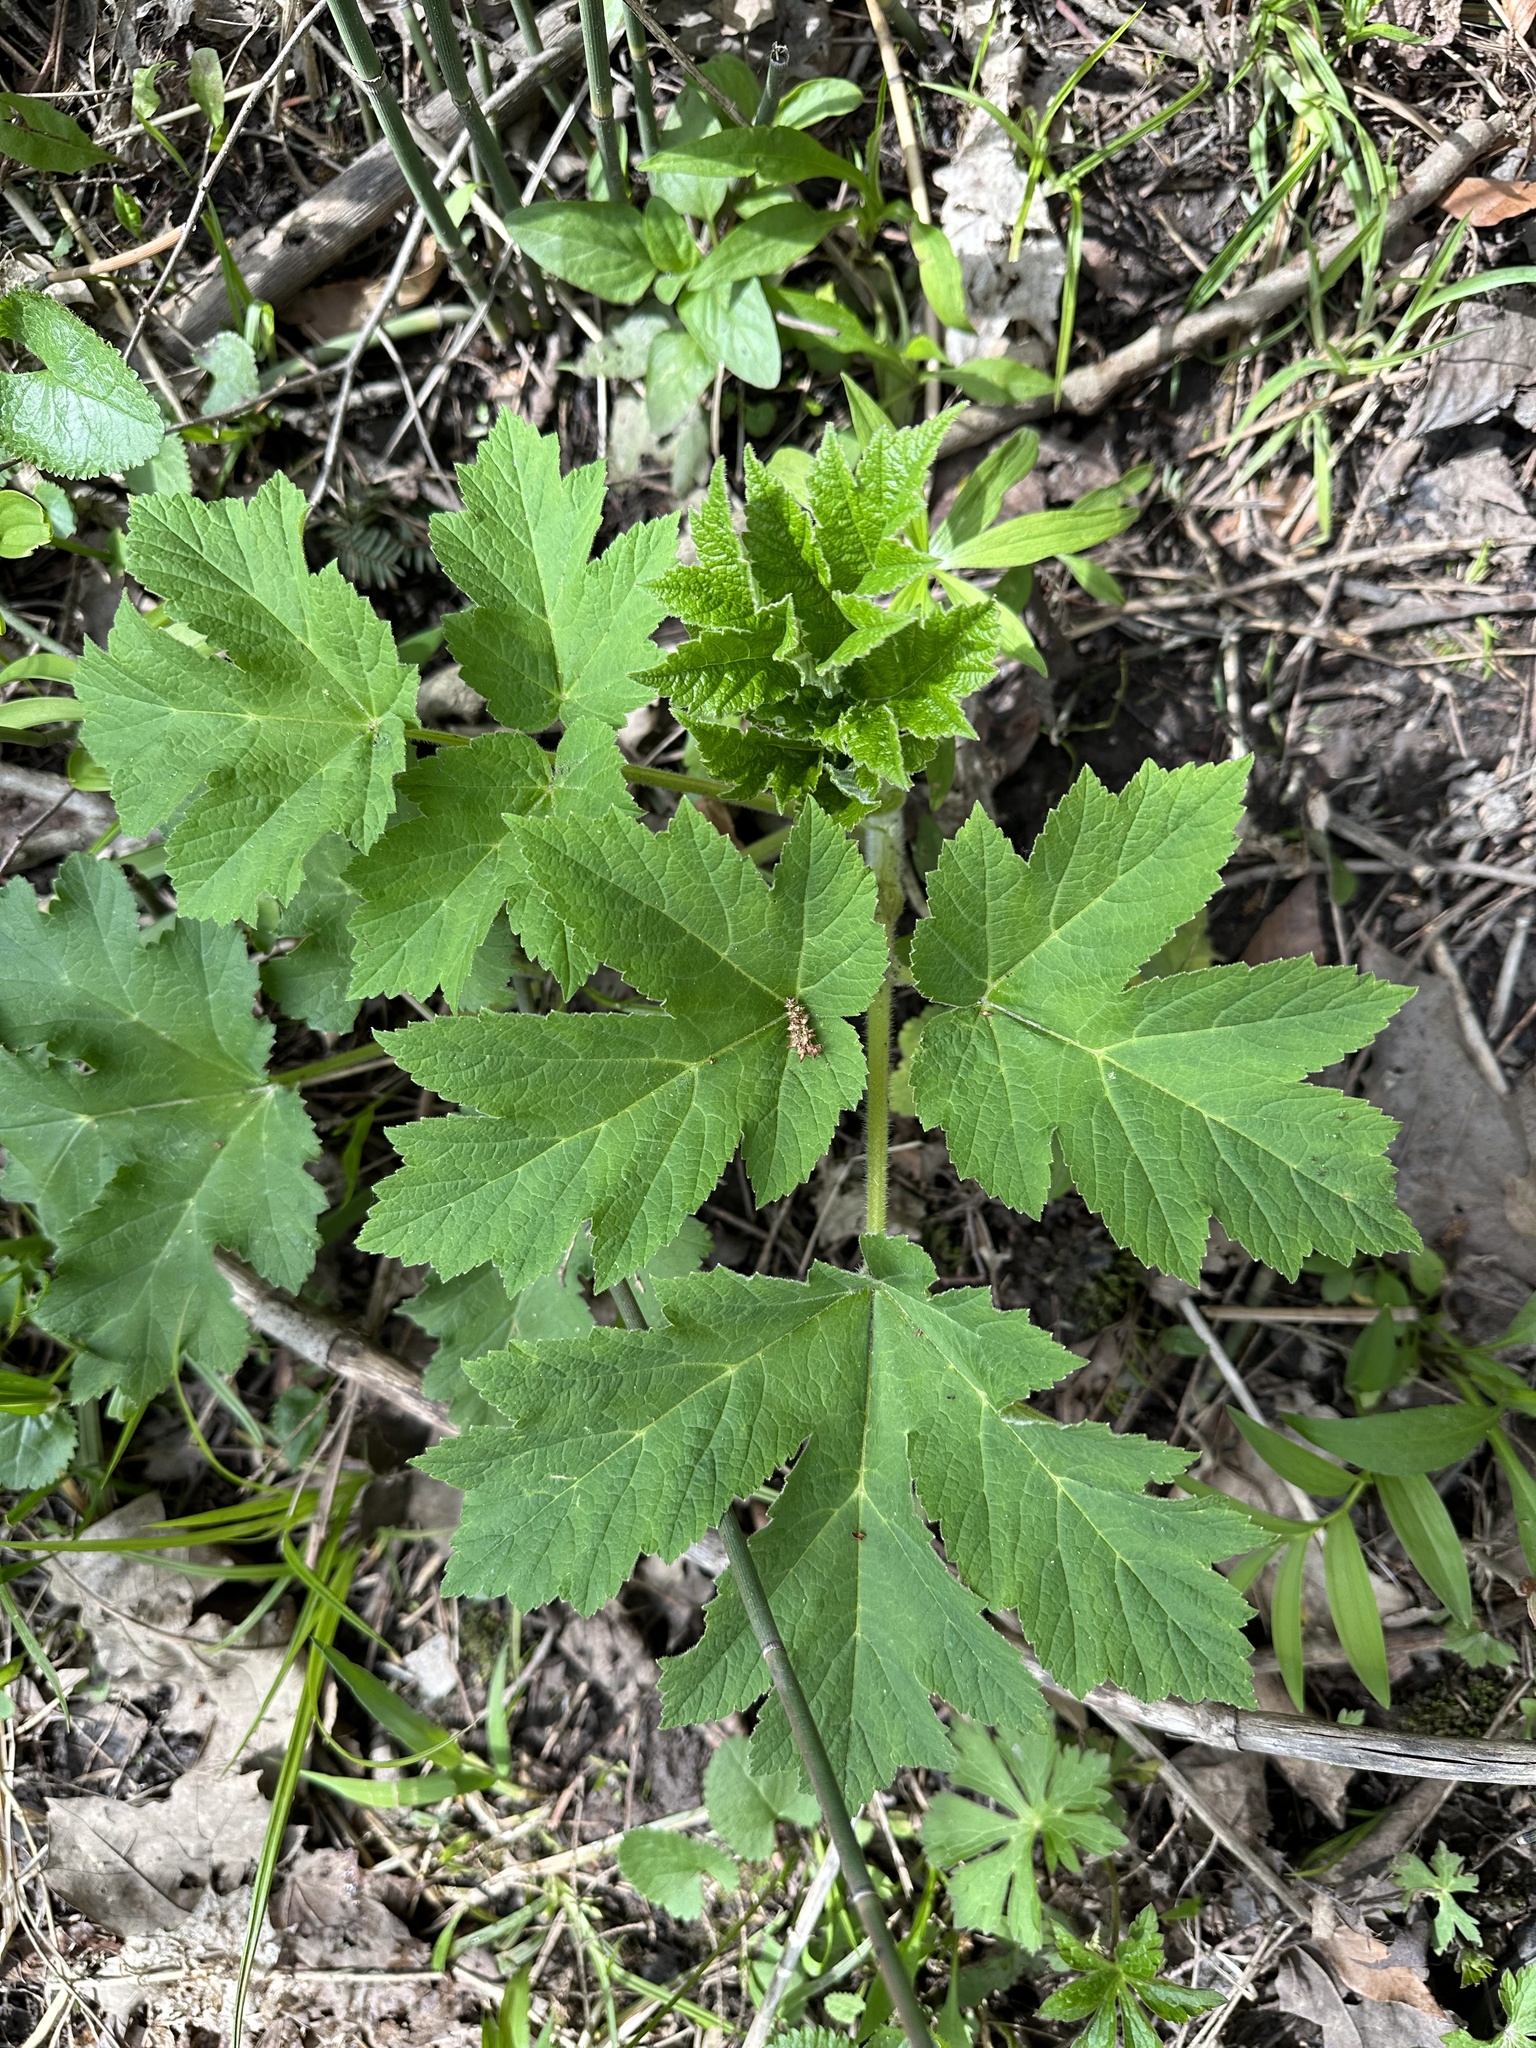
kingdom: Plantae
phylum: Tracheophyta
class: Magnoliopsida
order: Apiales
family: Apiaceae
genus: Heracleum
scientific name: Heracleum maximum
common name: American cow parsnip
